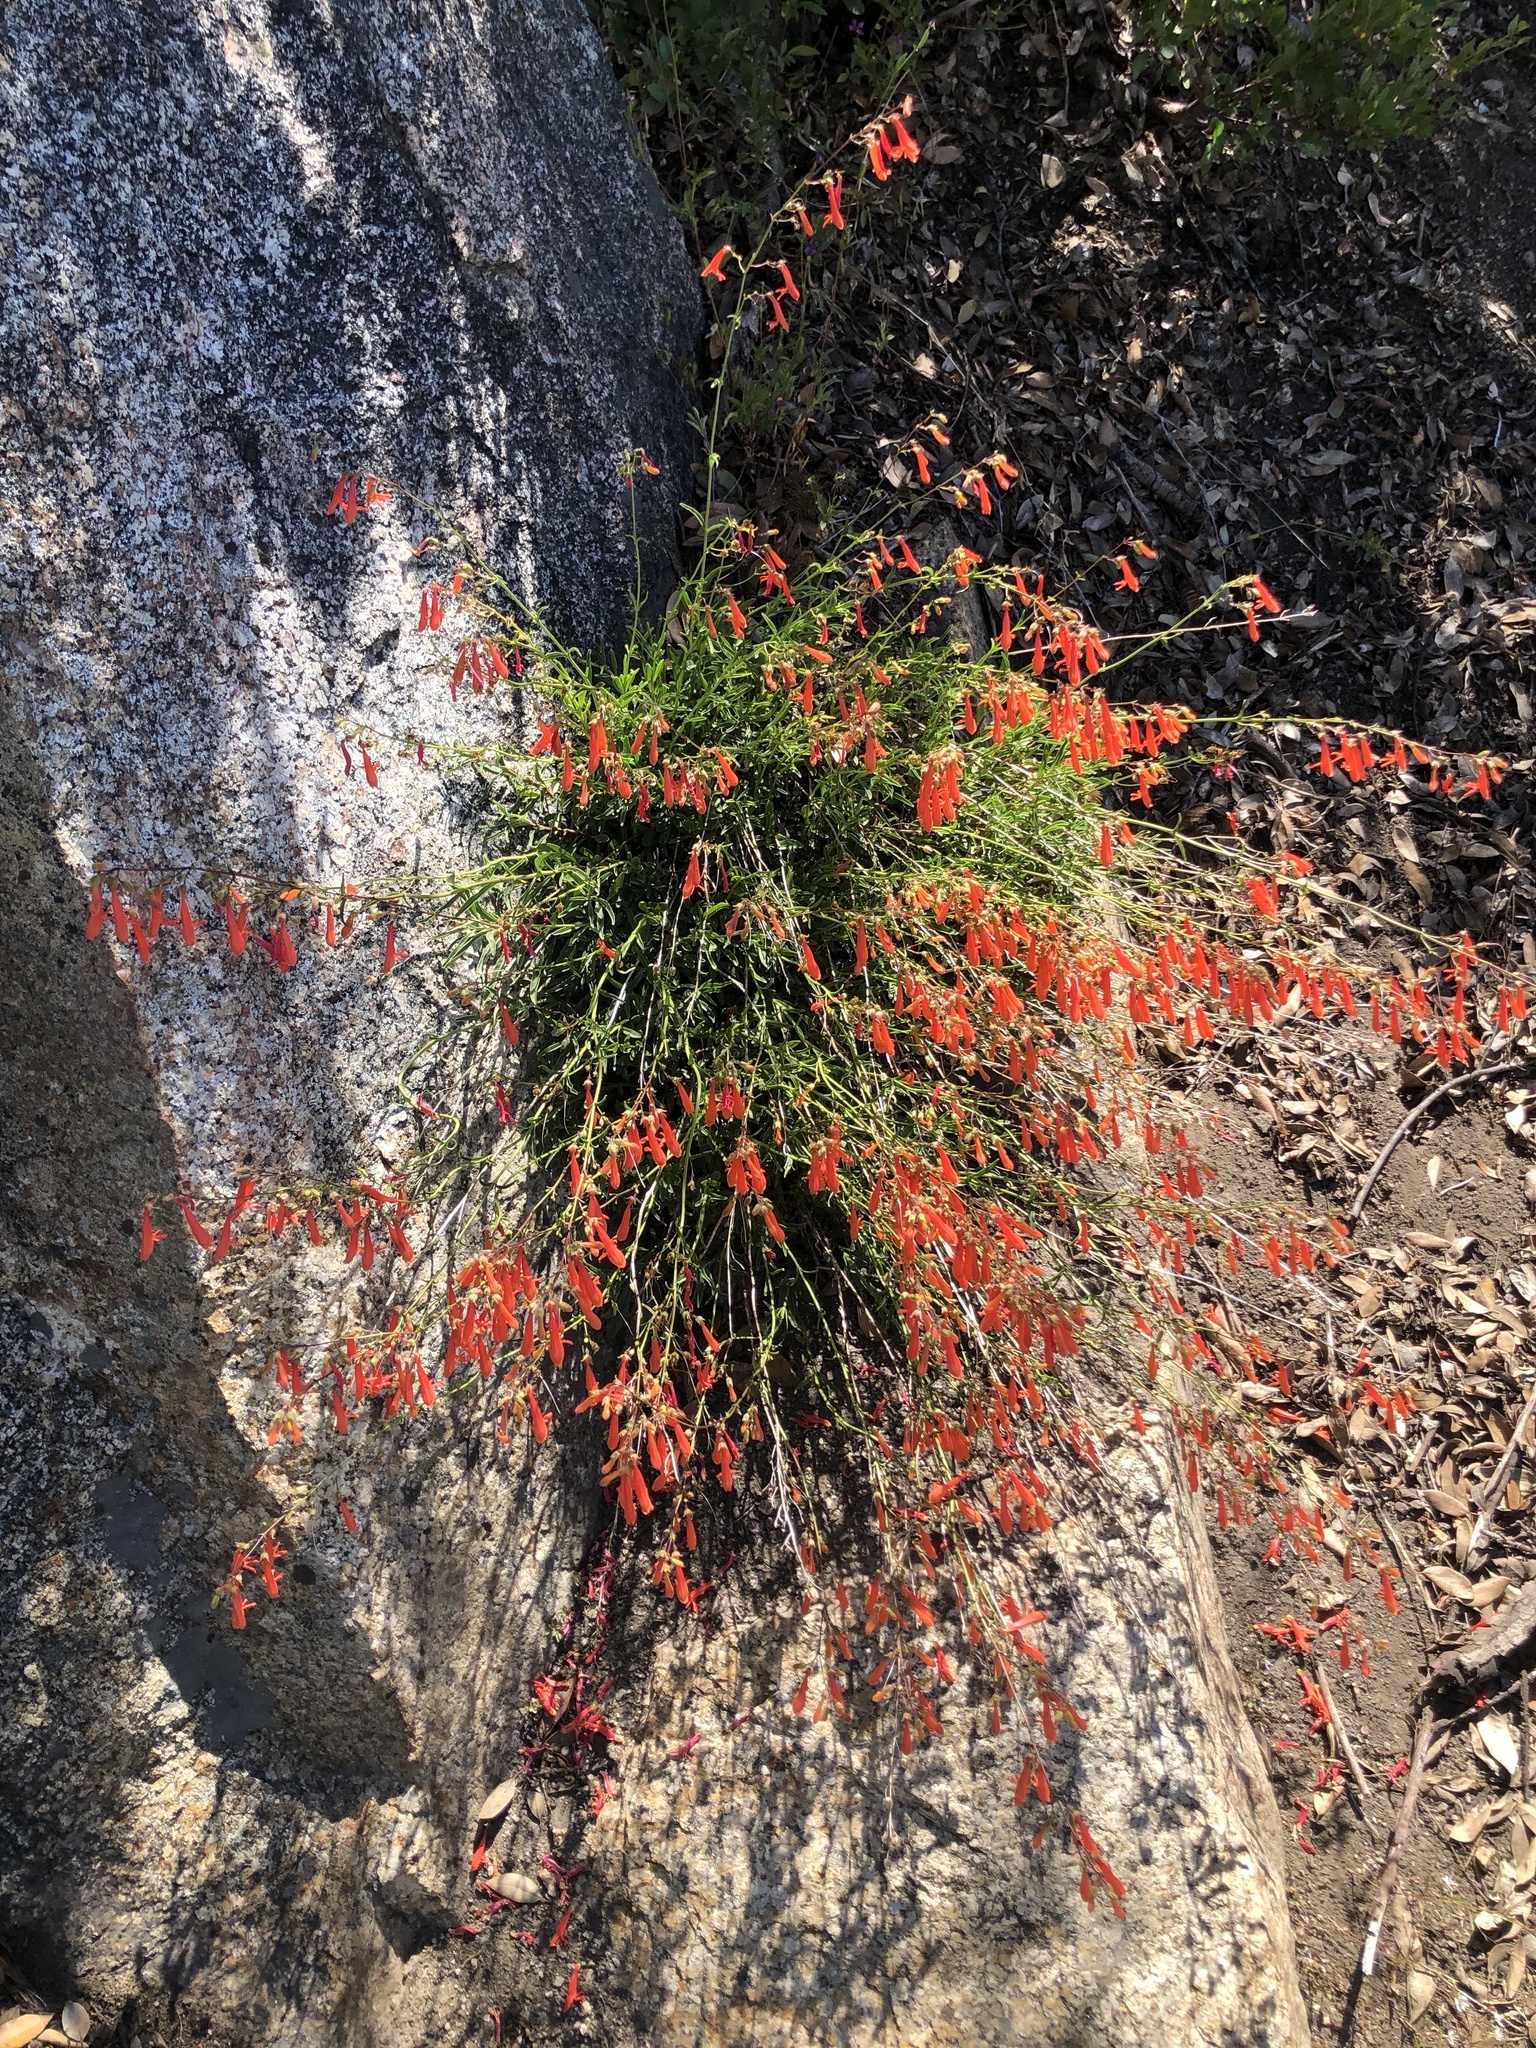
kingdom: Plantae
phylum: Tracheophyta
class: Magnoliopsida
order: Lamiales
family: Plantaginaceae
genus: Penstemon
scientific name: Penstemon rostriflorus
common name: Bridges's penstemon
